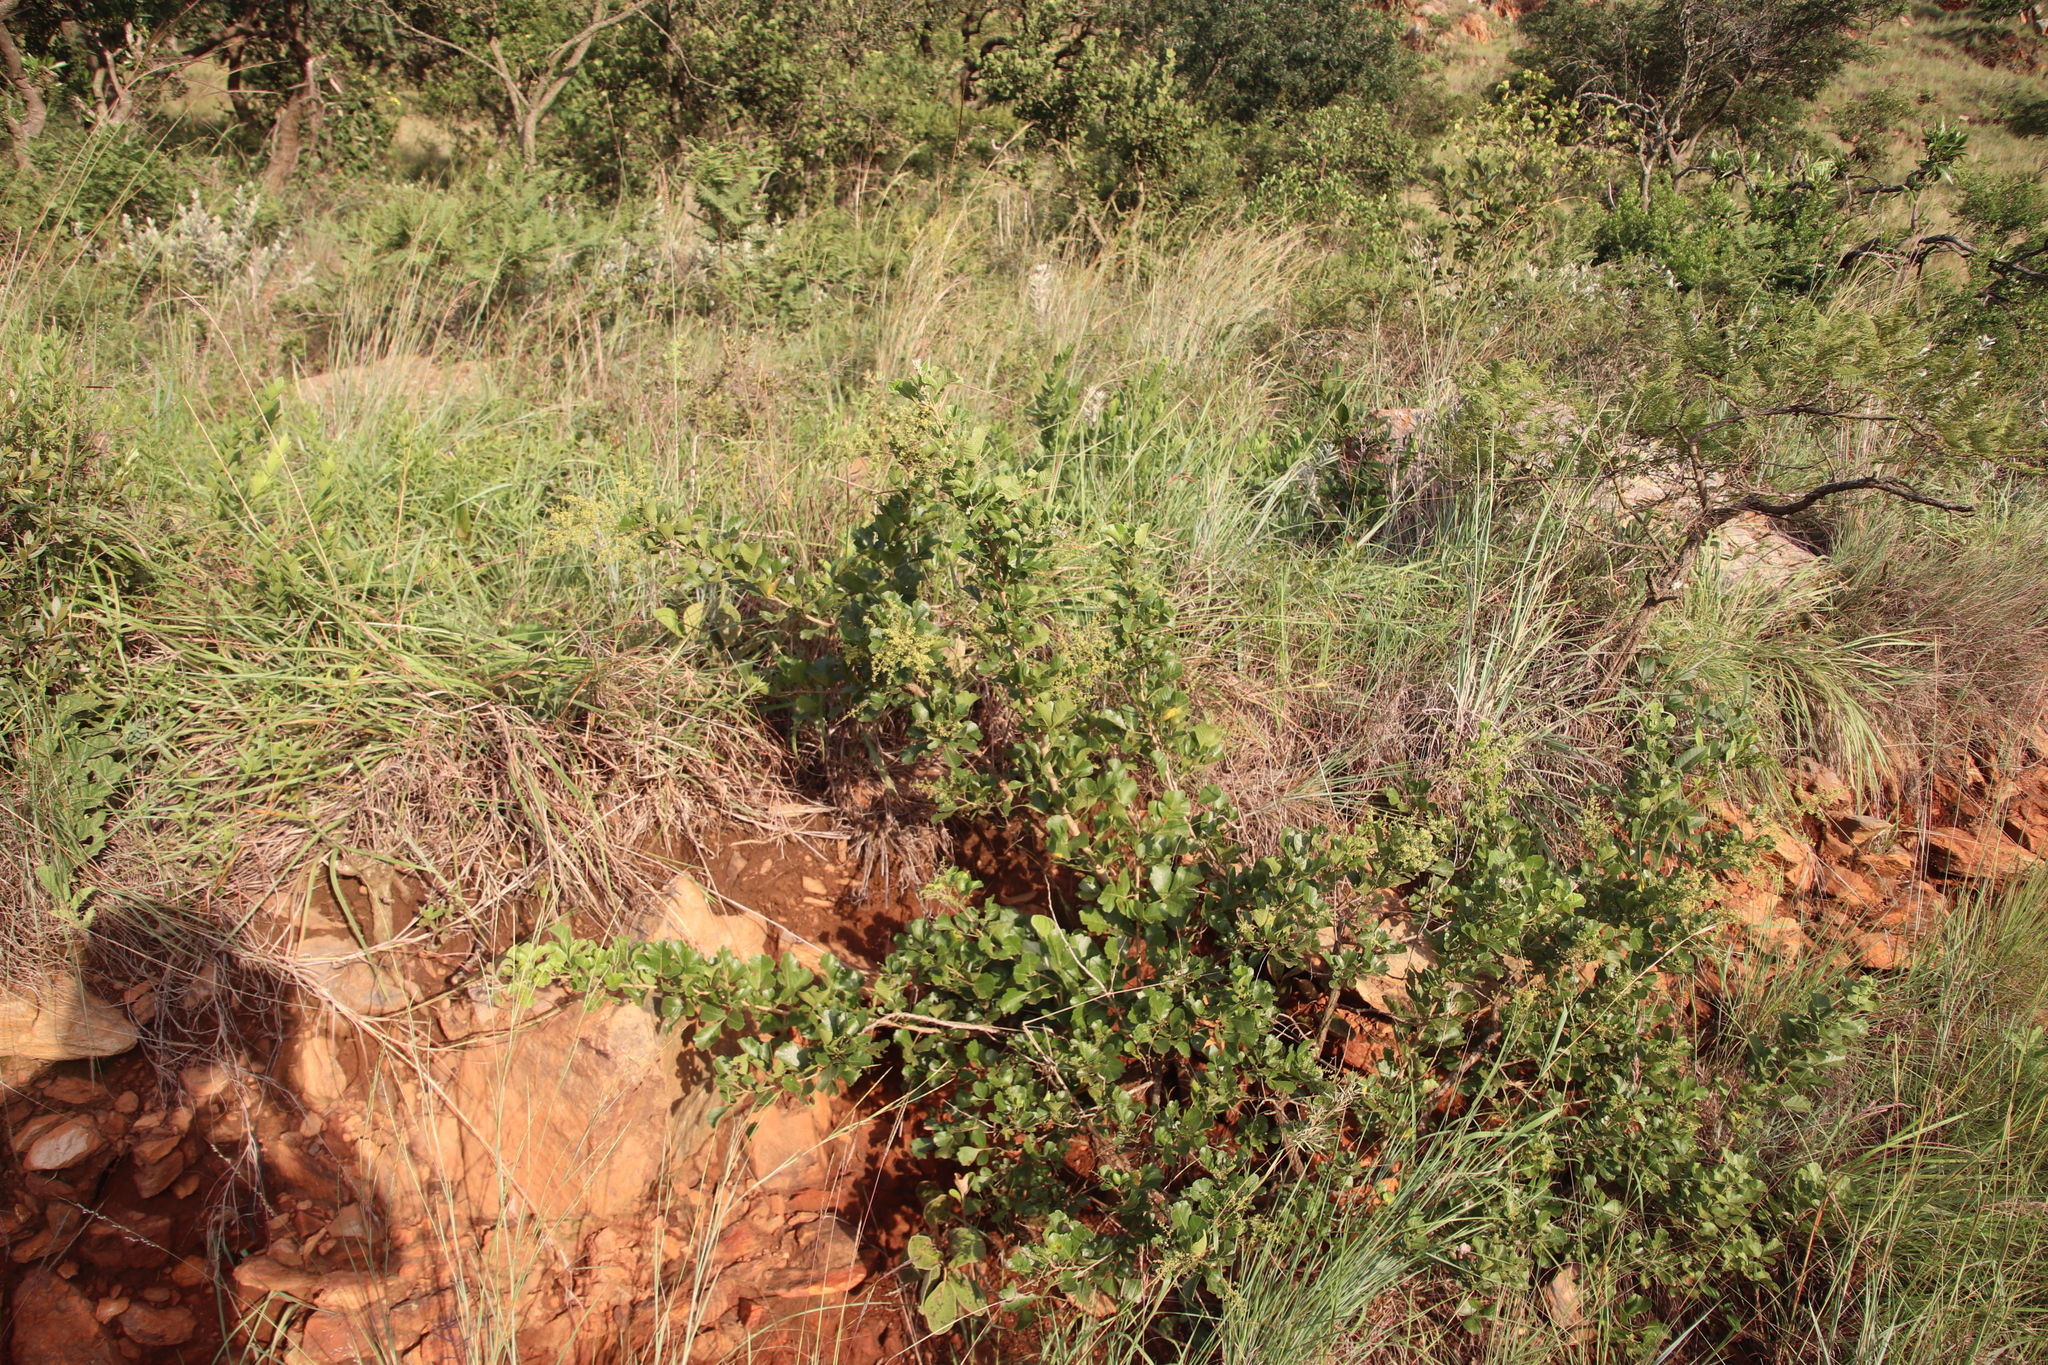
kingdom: Plantae
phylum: Tracheophyta
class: Magnoliopsida
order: Sapindales
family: Anacardiaceae
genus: Searsia
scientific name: Searsia rehmanniana
